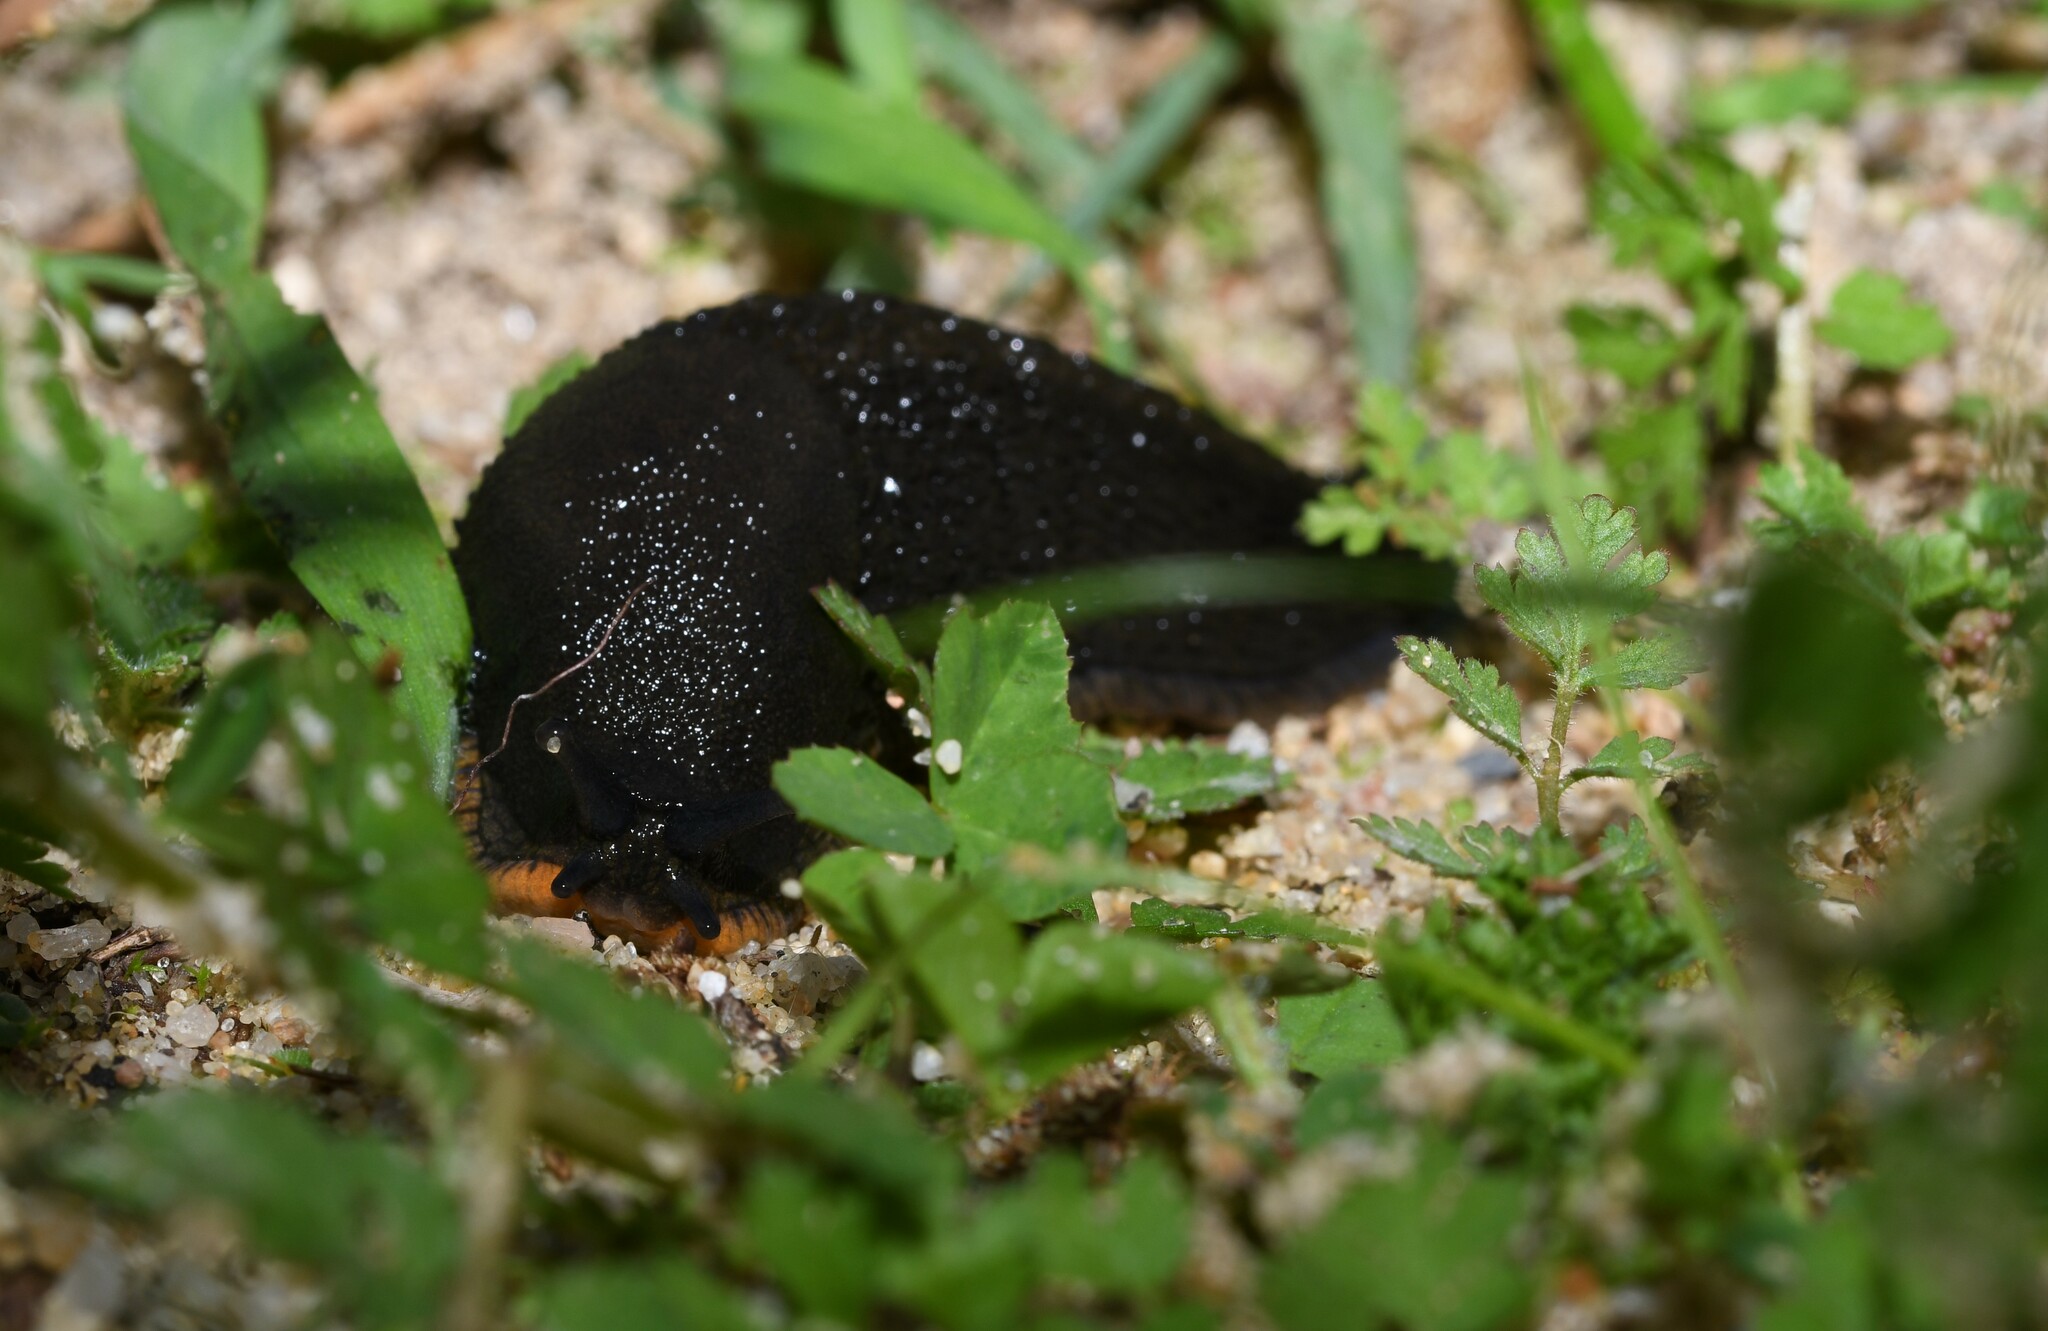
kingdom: Animalia
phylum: Mollusca
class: Gastropoda
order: Stylommatophora
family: Arionidae
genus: Arion
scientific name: Arion ater
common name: Black arion
